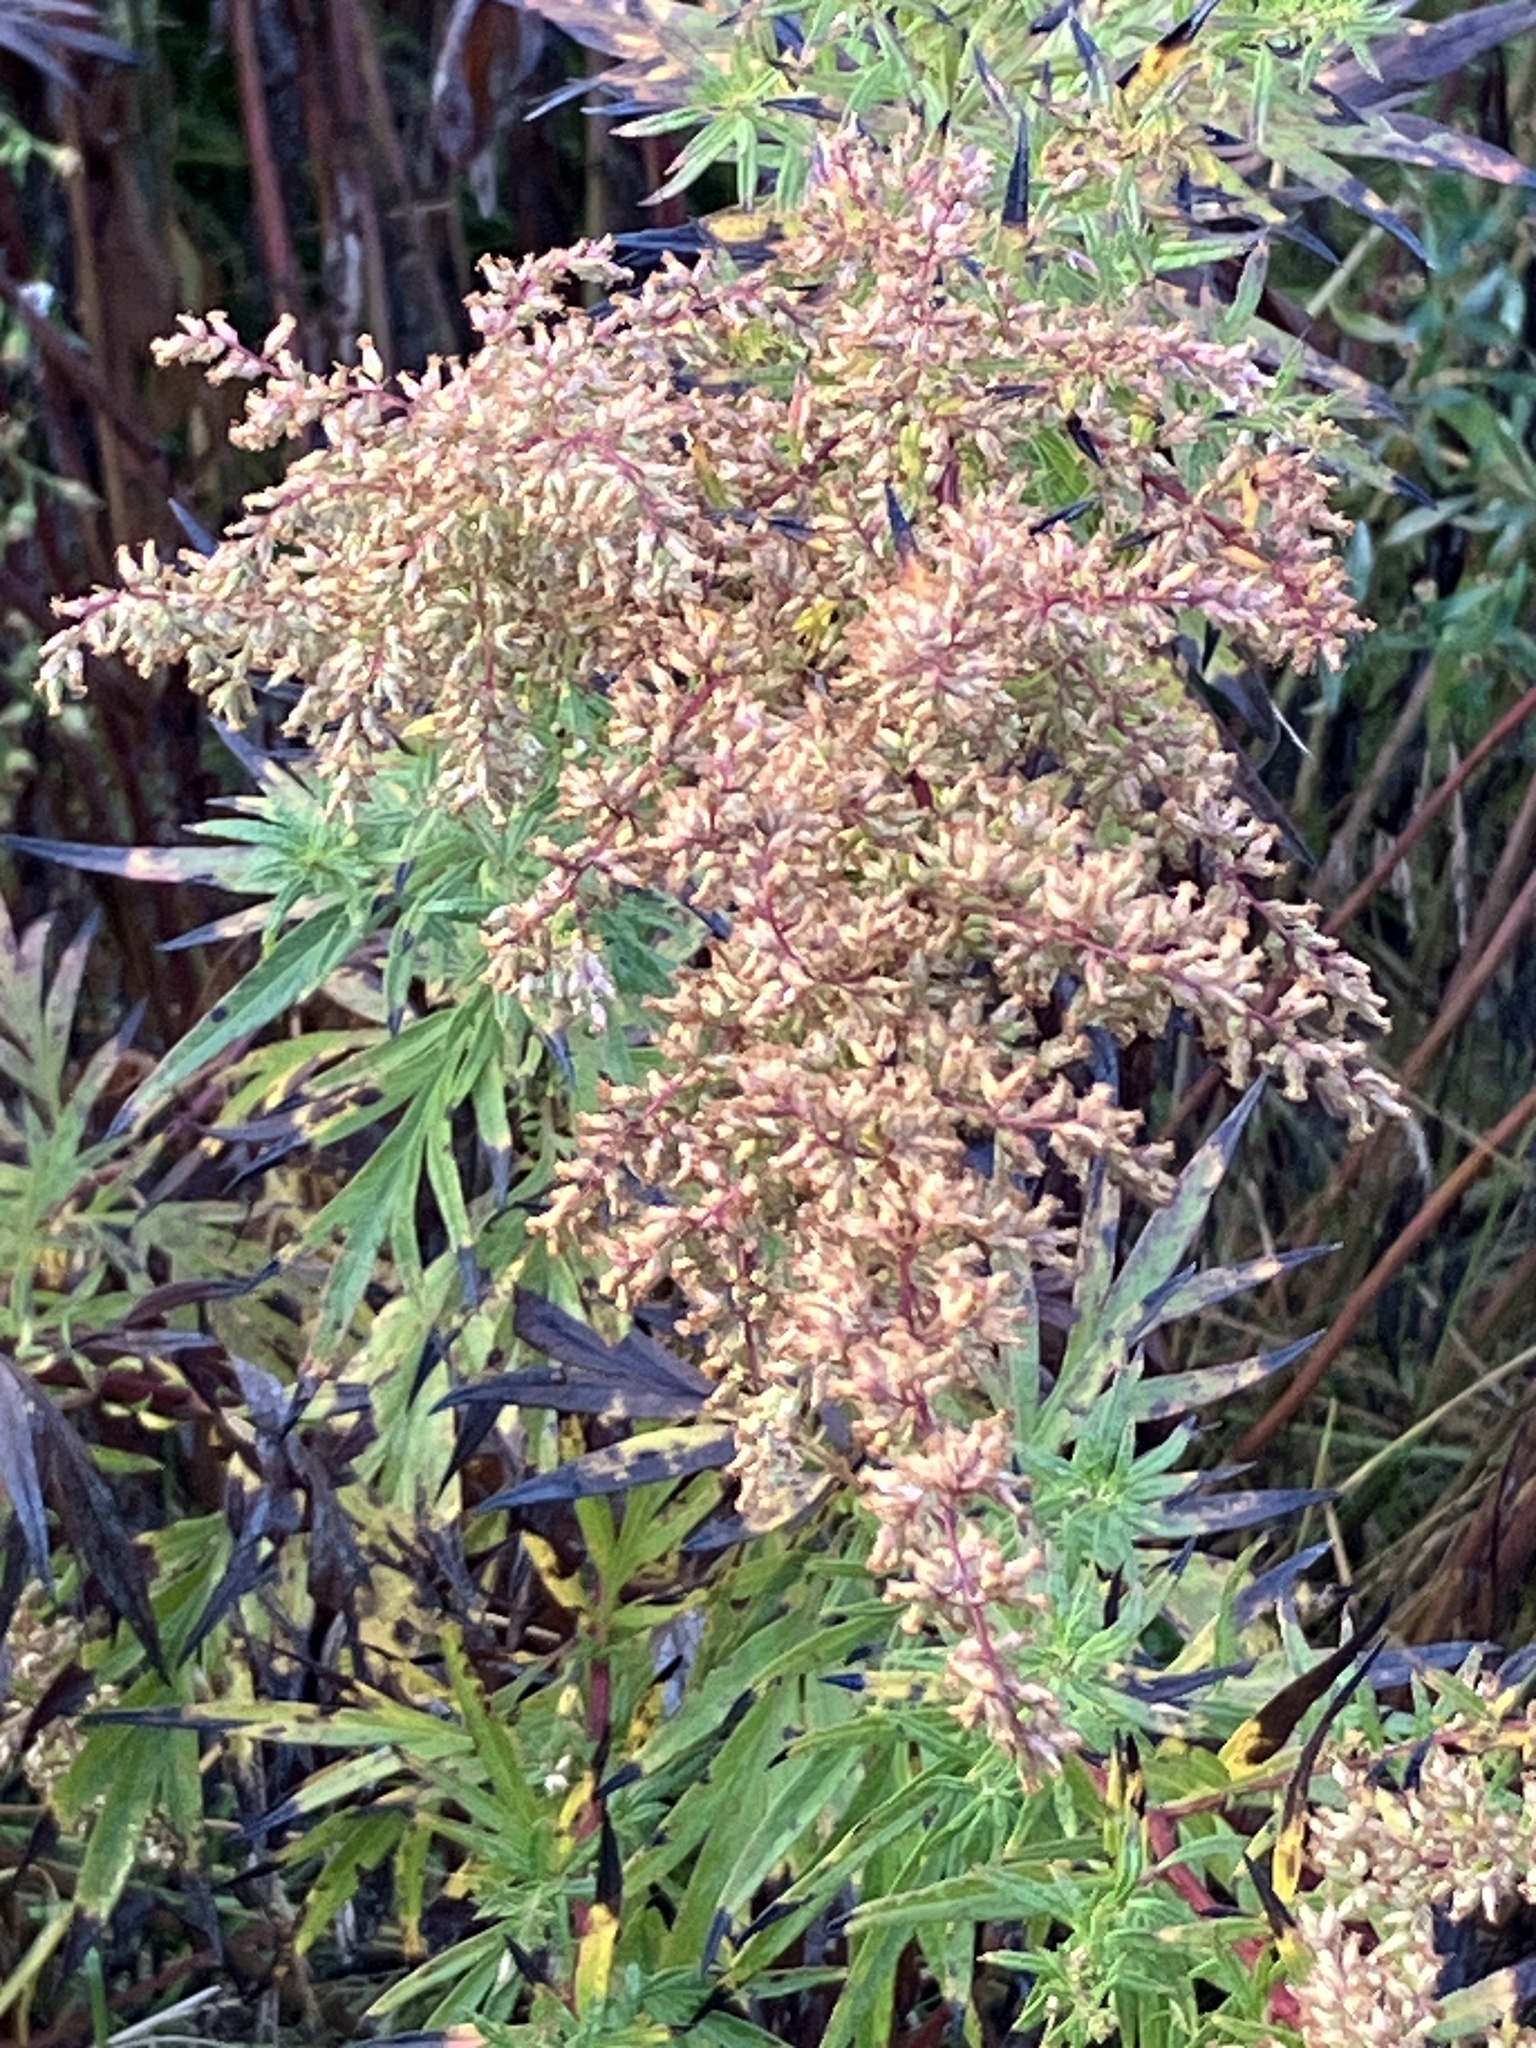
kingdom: Plantae
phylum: Tracheophyta
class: Magnoliopsida
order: Asterales
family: Asteraceae
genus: Artemisia
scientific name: Artemisia vulgaris
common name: Mugwort
